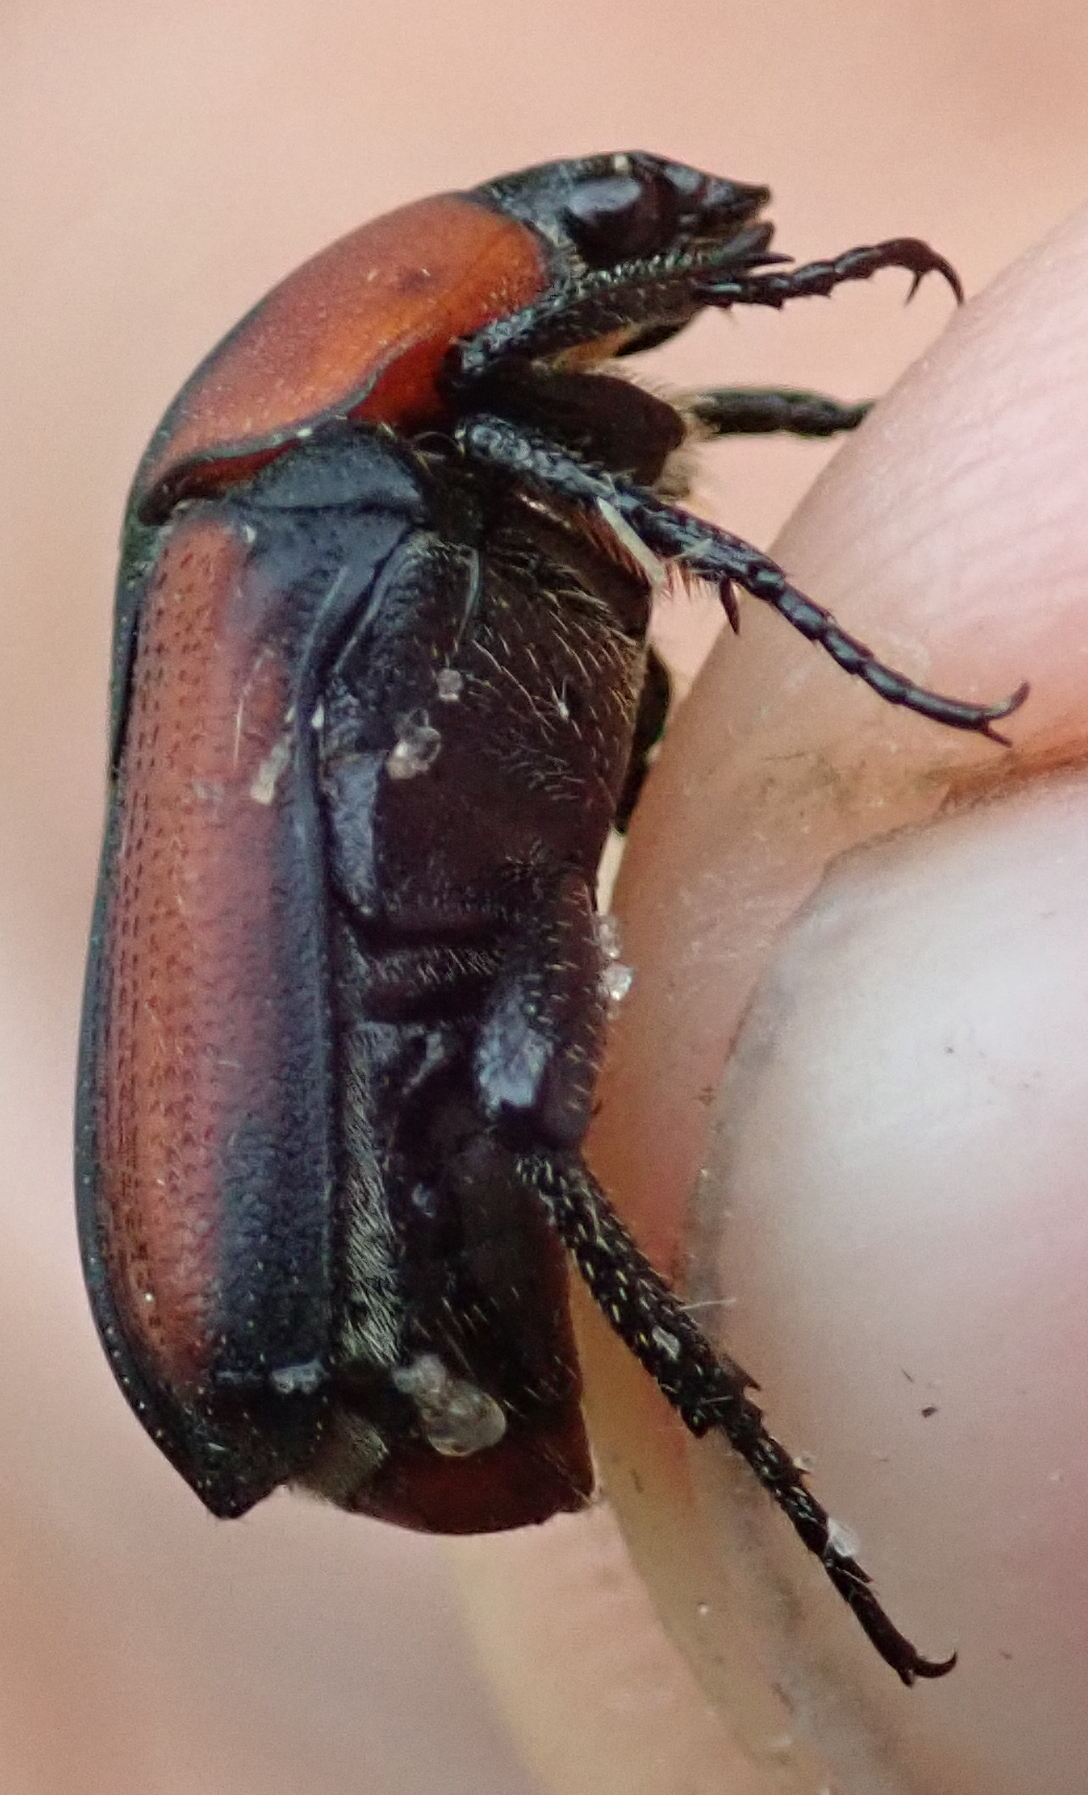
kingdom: Animalia
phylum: Arthropoda
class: Insecta
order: Coleoptera
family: Scarabaeidae
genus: Tephraea
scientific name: Tephraea morosa
